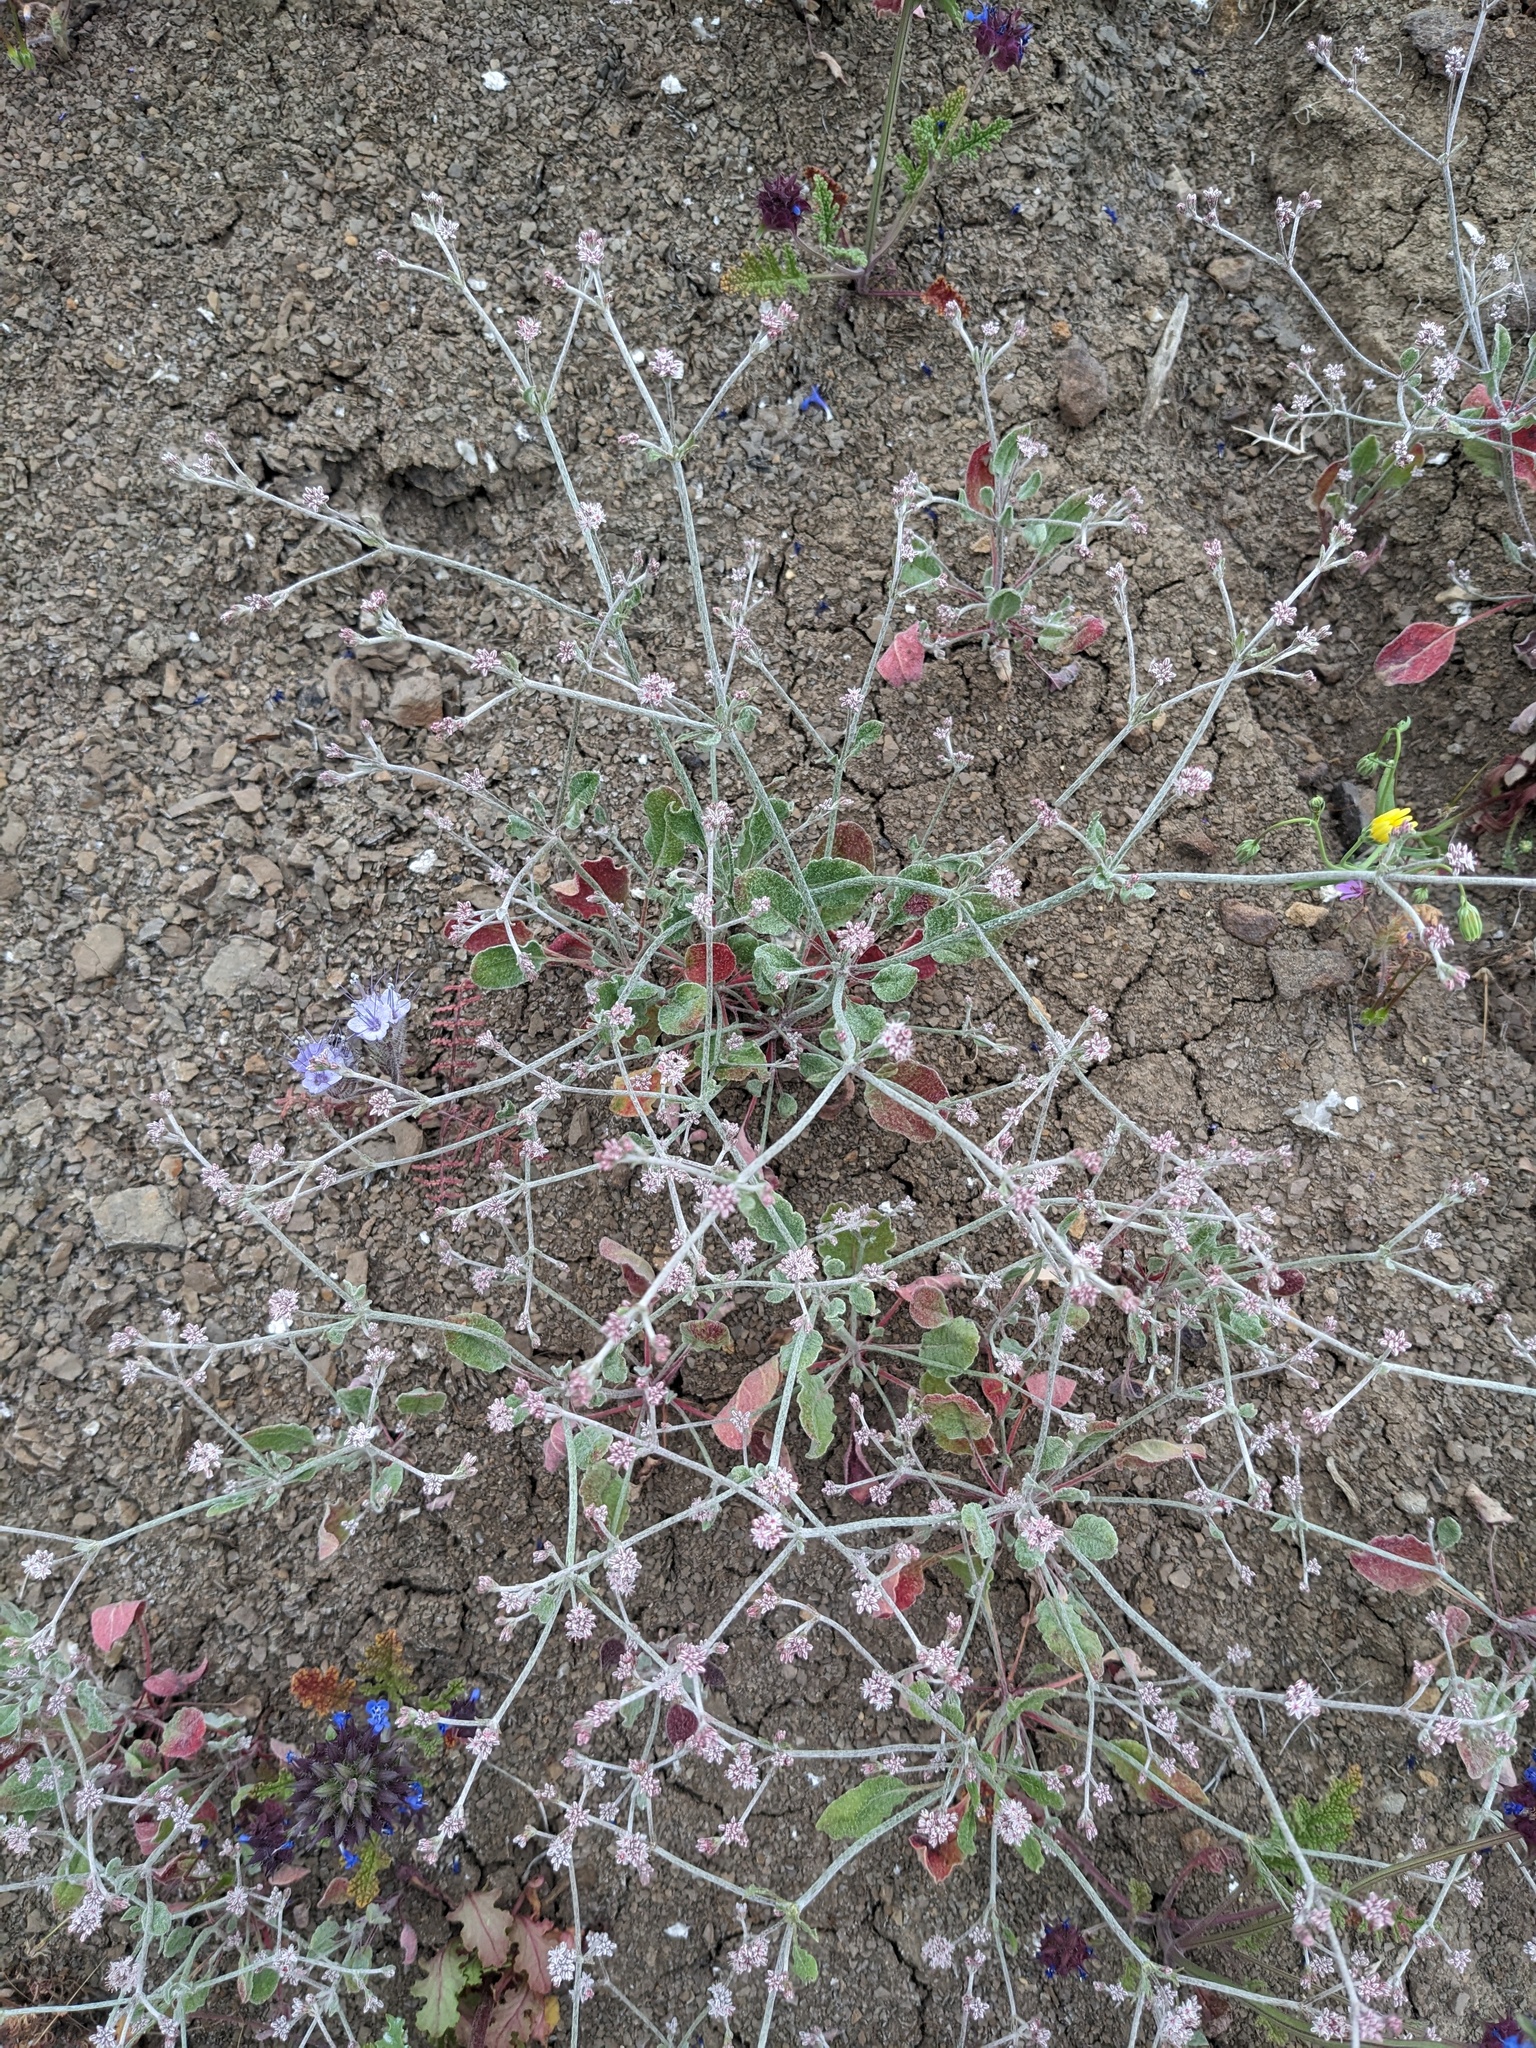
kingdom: Plantae
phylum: Tracheophyta
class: Magnoliopsida
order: Caryophyllales
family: Polygonaceae
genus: Eriogonum
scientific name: Eriogonum vestitum
